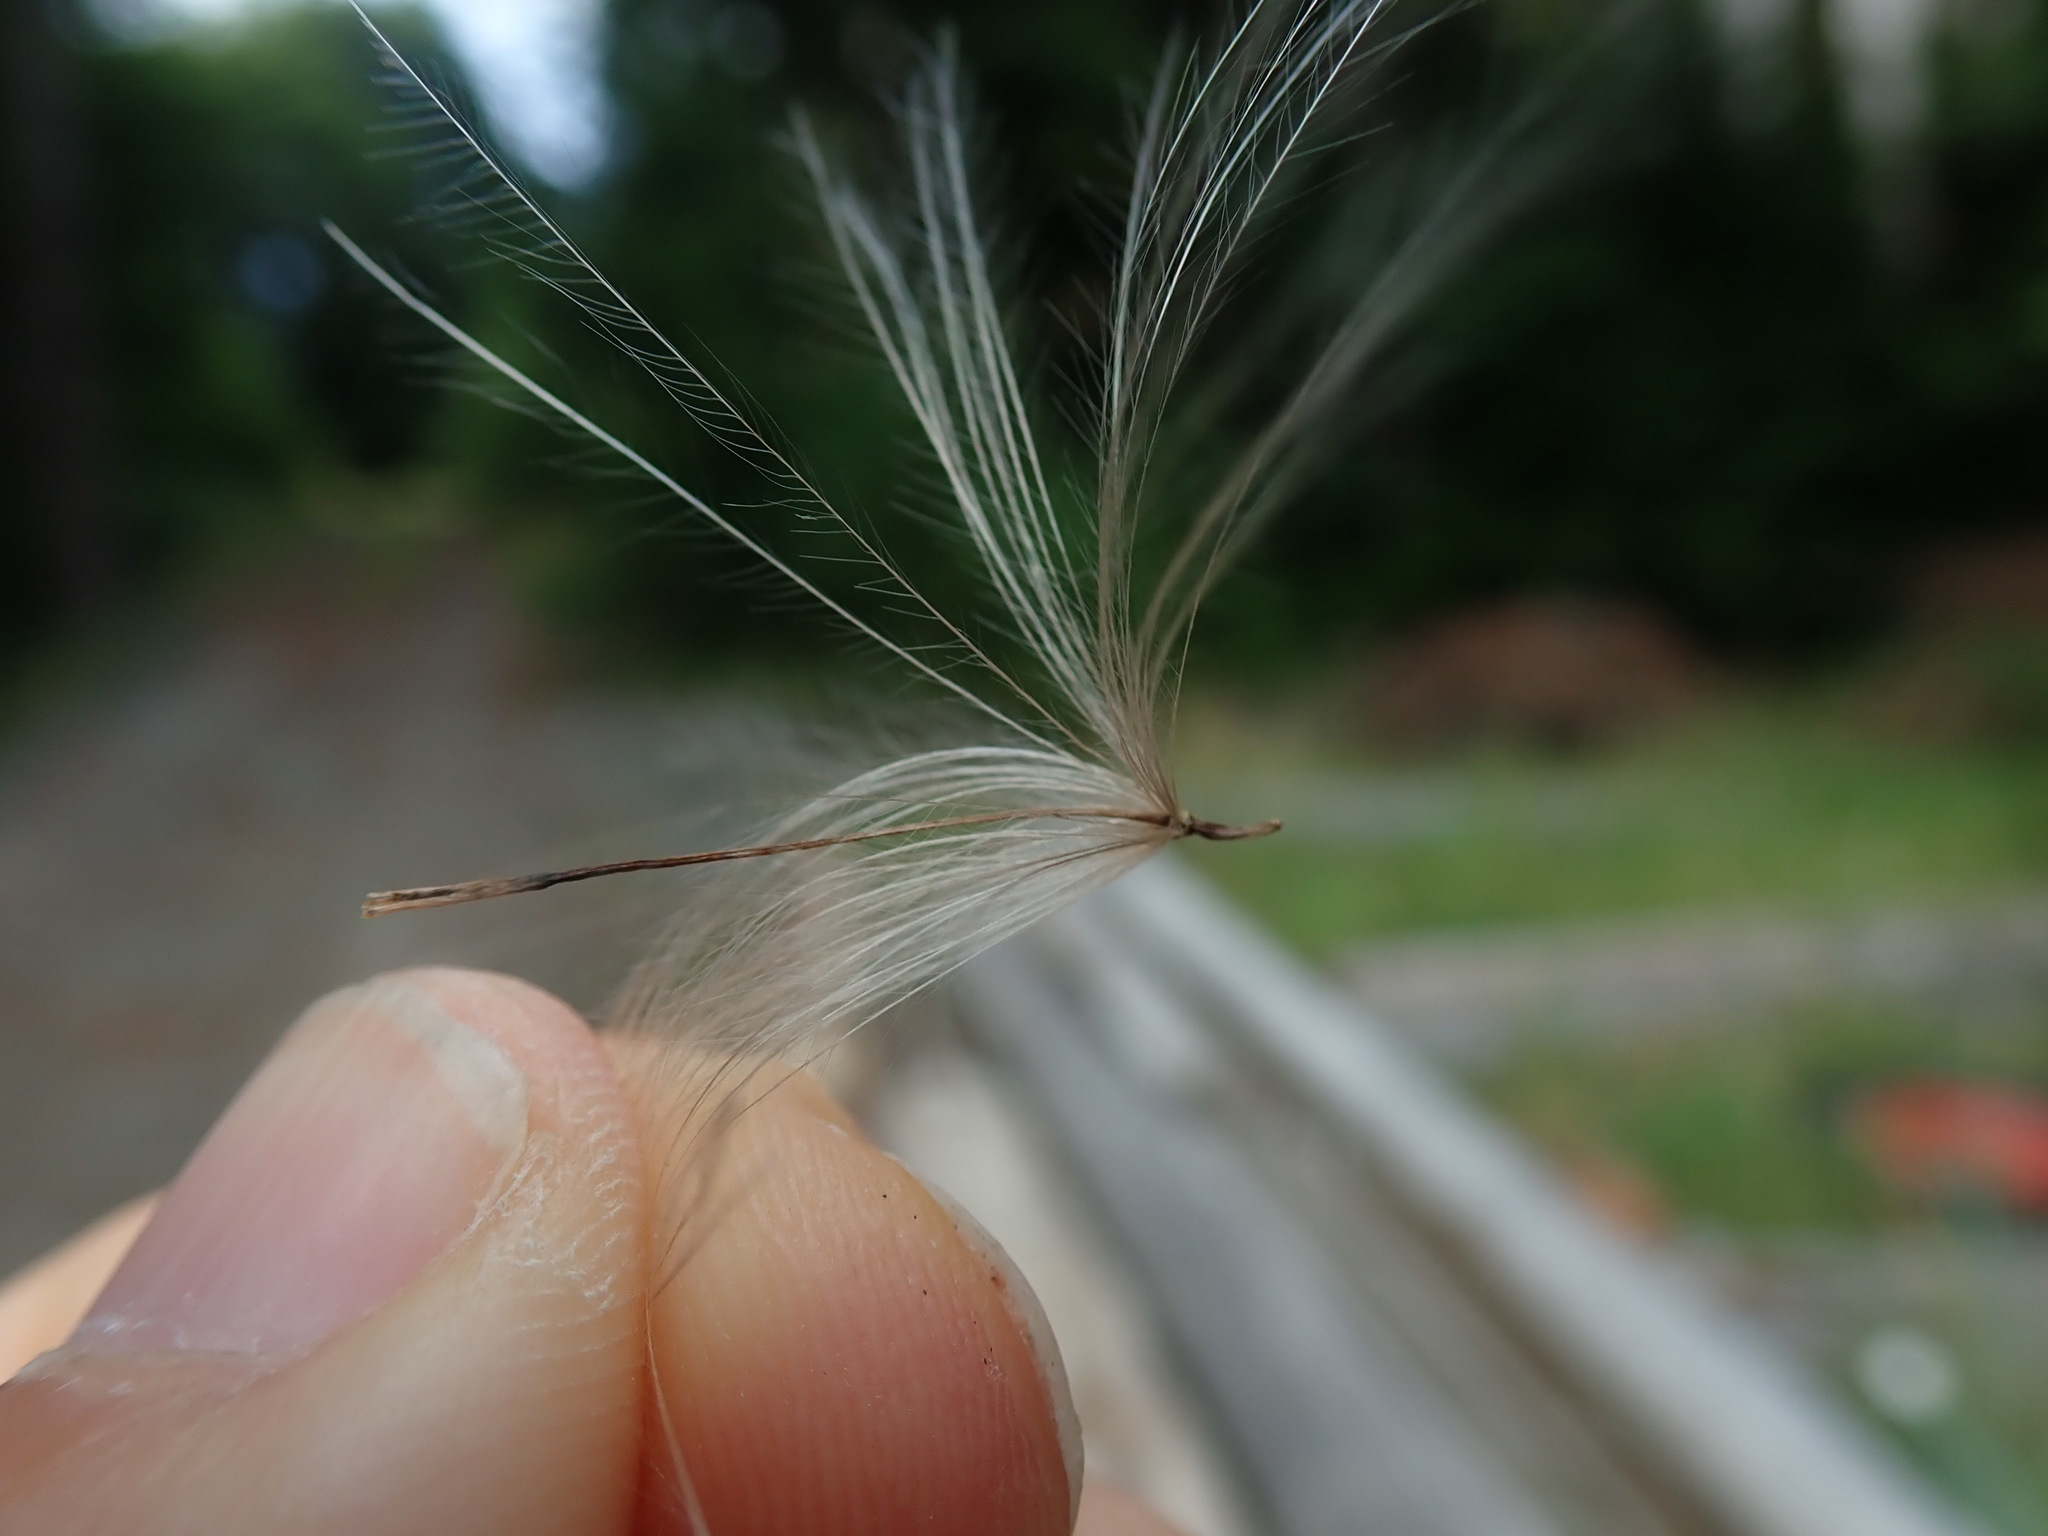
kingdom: Plantae
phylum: Tracheophyta
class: Magnoliopsida
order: Asterales
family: Asteraceae
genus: Cirsium
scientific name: Cirsium arvense
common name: Creeping thistle
